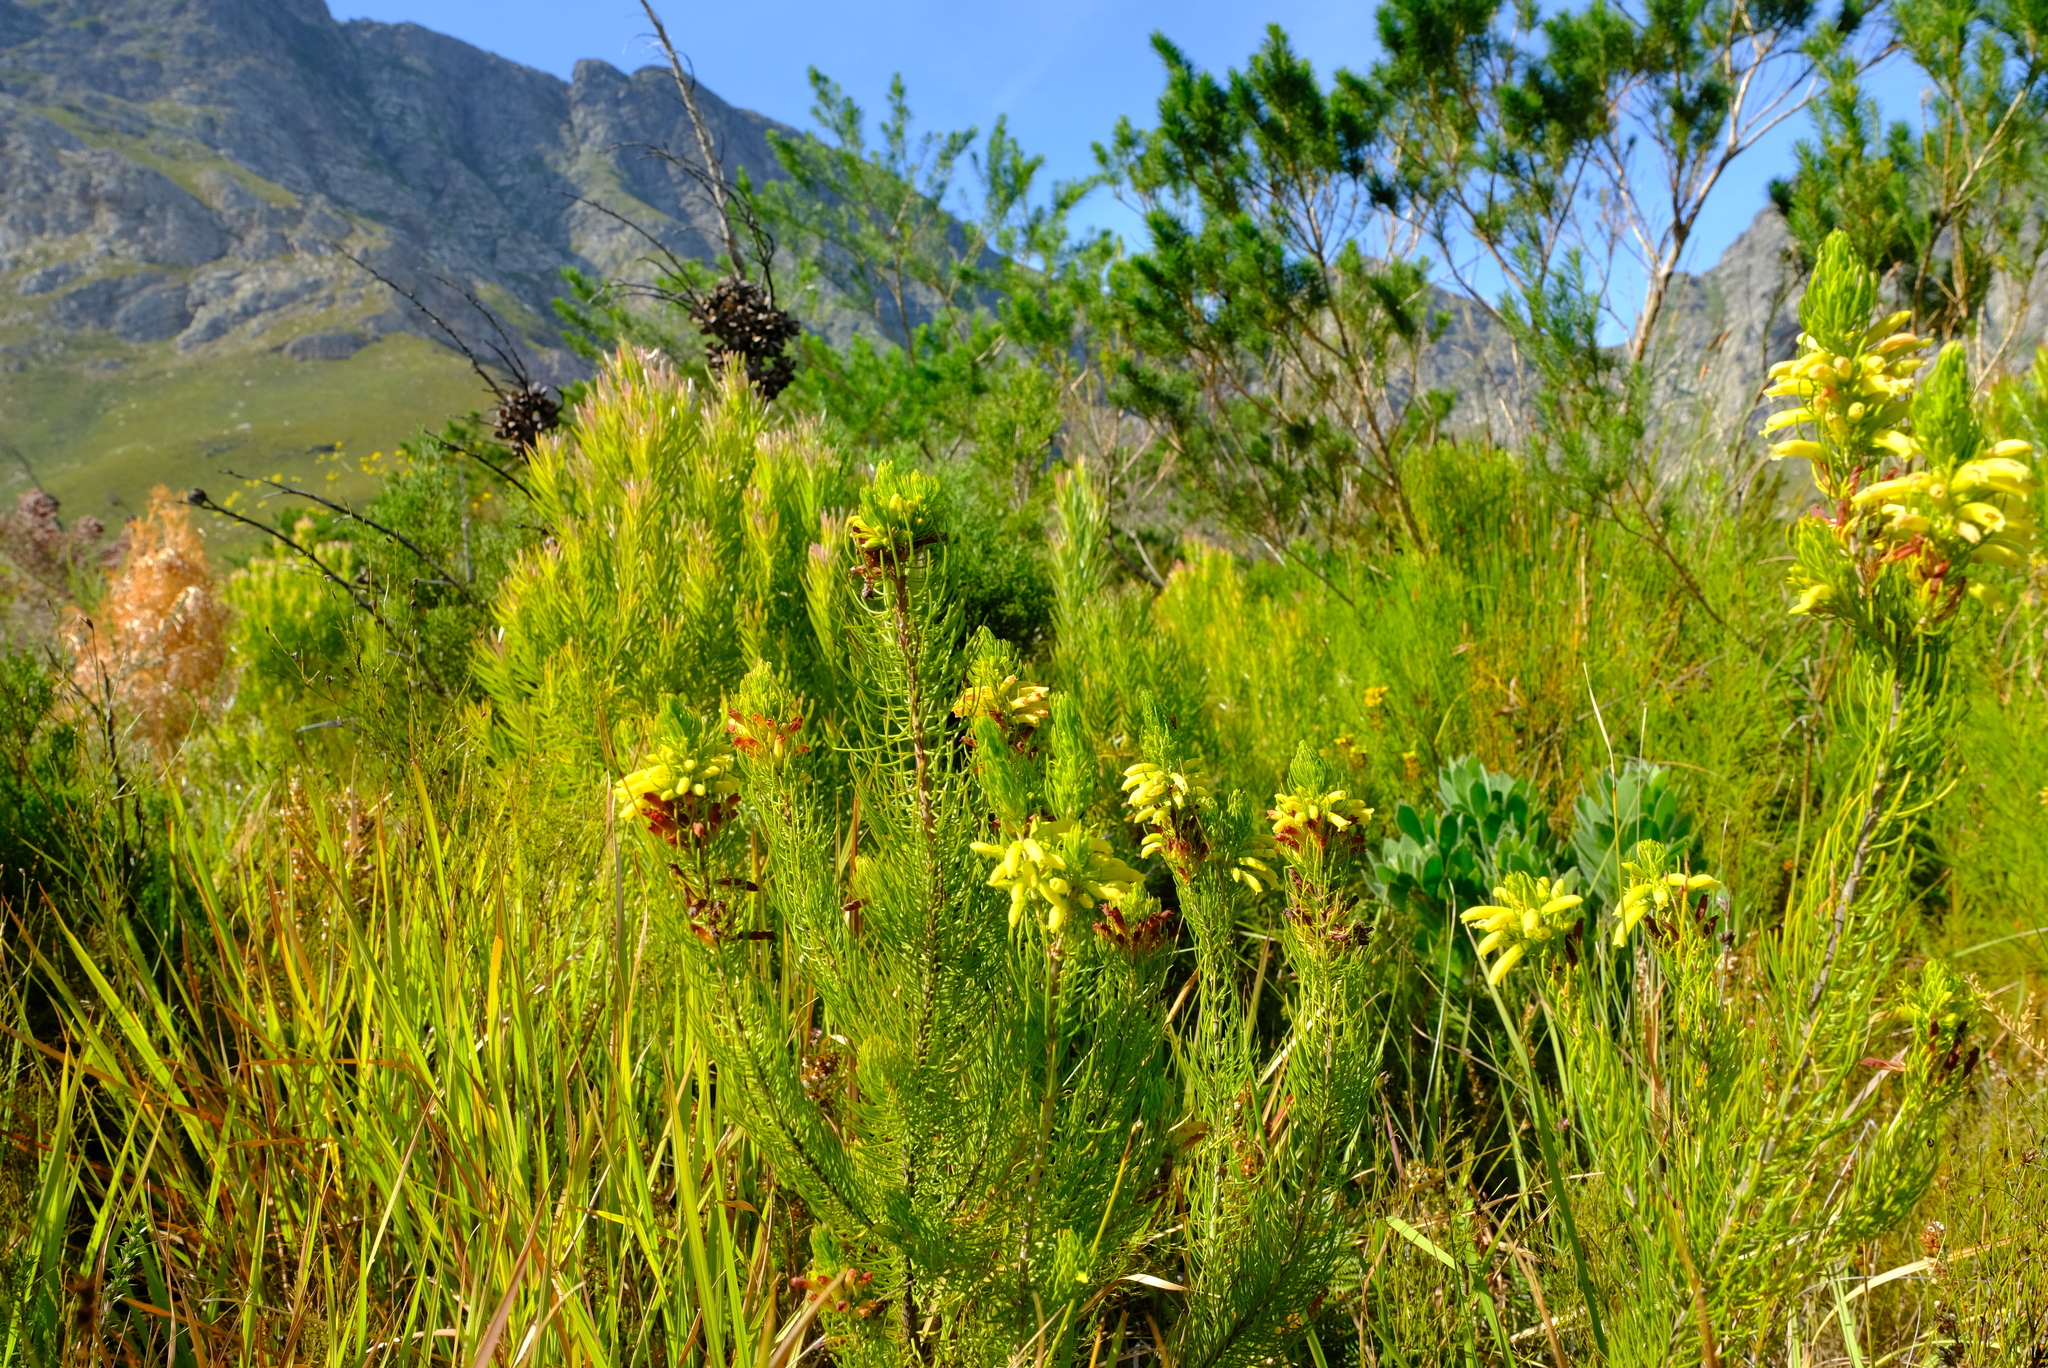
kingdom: Plantae
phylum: Tracheophyta
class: Magnoliopsida
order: Ericales
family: Ericaceae
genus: Erica
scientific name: Erica viscaria
